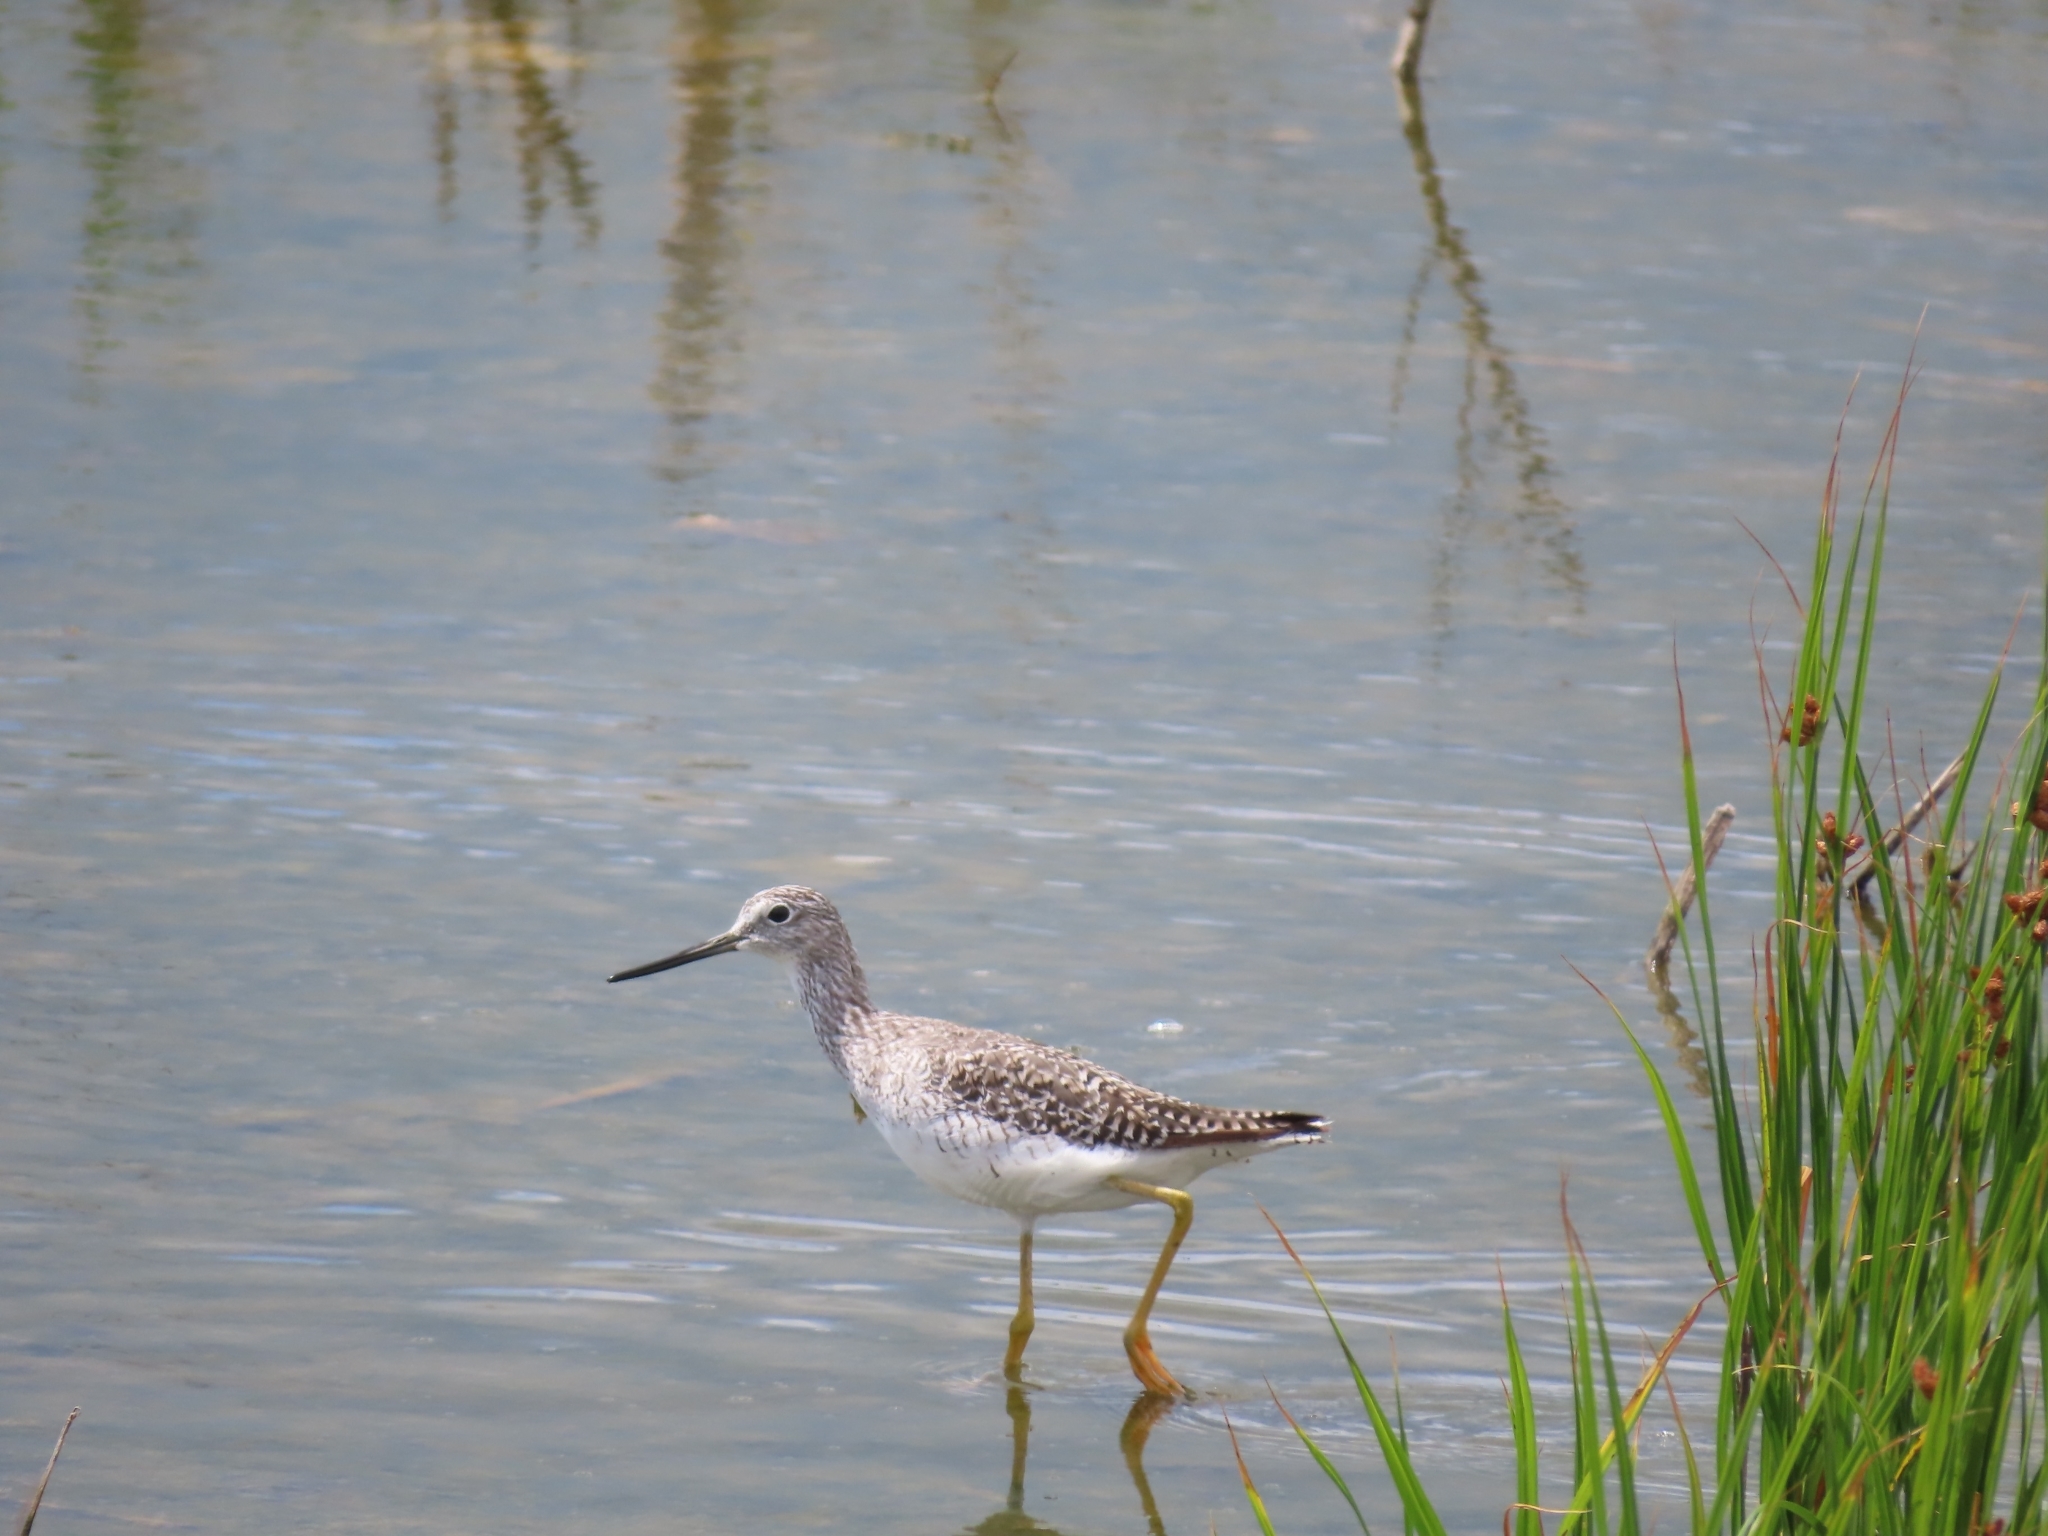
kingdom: Animalia
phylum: Chordata
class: Aves
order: Charadriiformes
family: Scolopacidae
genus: Tringa
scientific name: Tringa melanoleuca
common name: Greater yellowlegs
